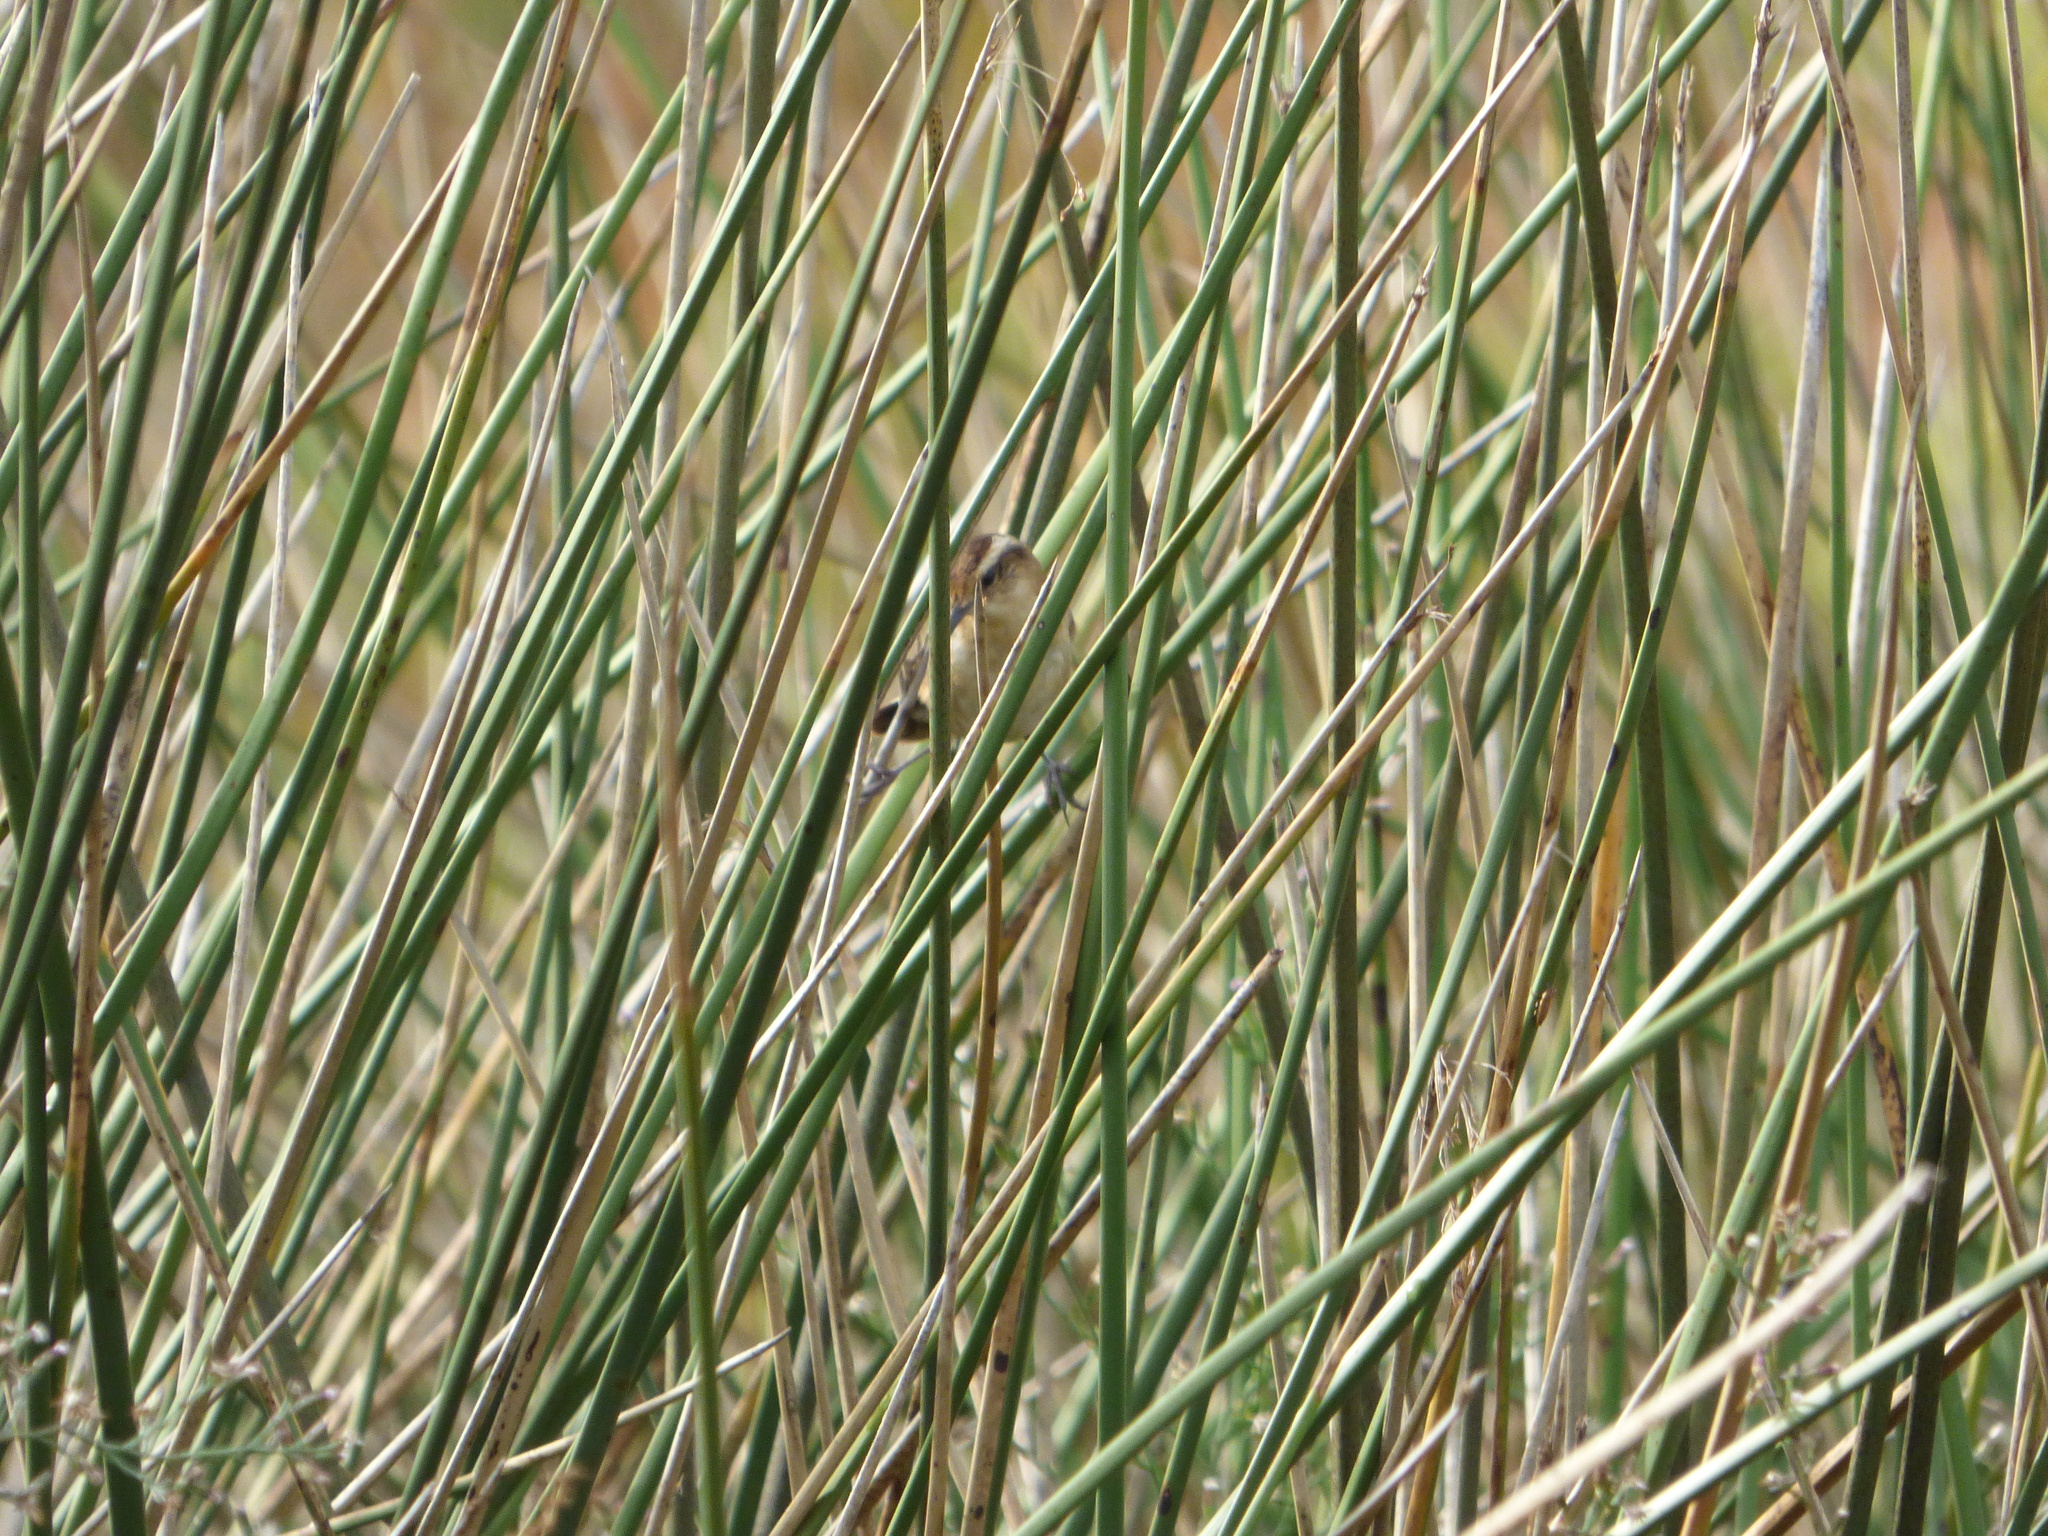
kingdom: Animalia
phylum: Chordata
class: Aves
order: Passeriformes
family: Furnariidae
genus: Phleocryptes
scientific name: Phleocryptes melanops
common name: Wren-like rushbird
